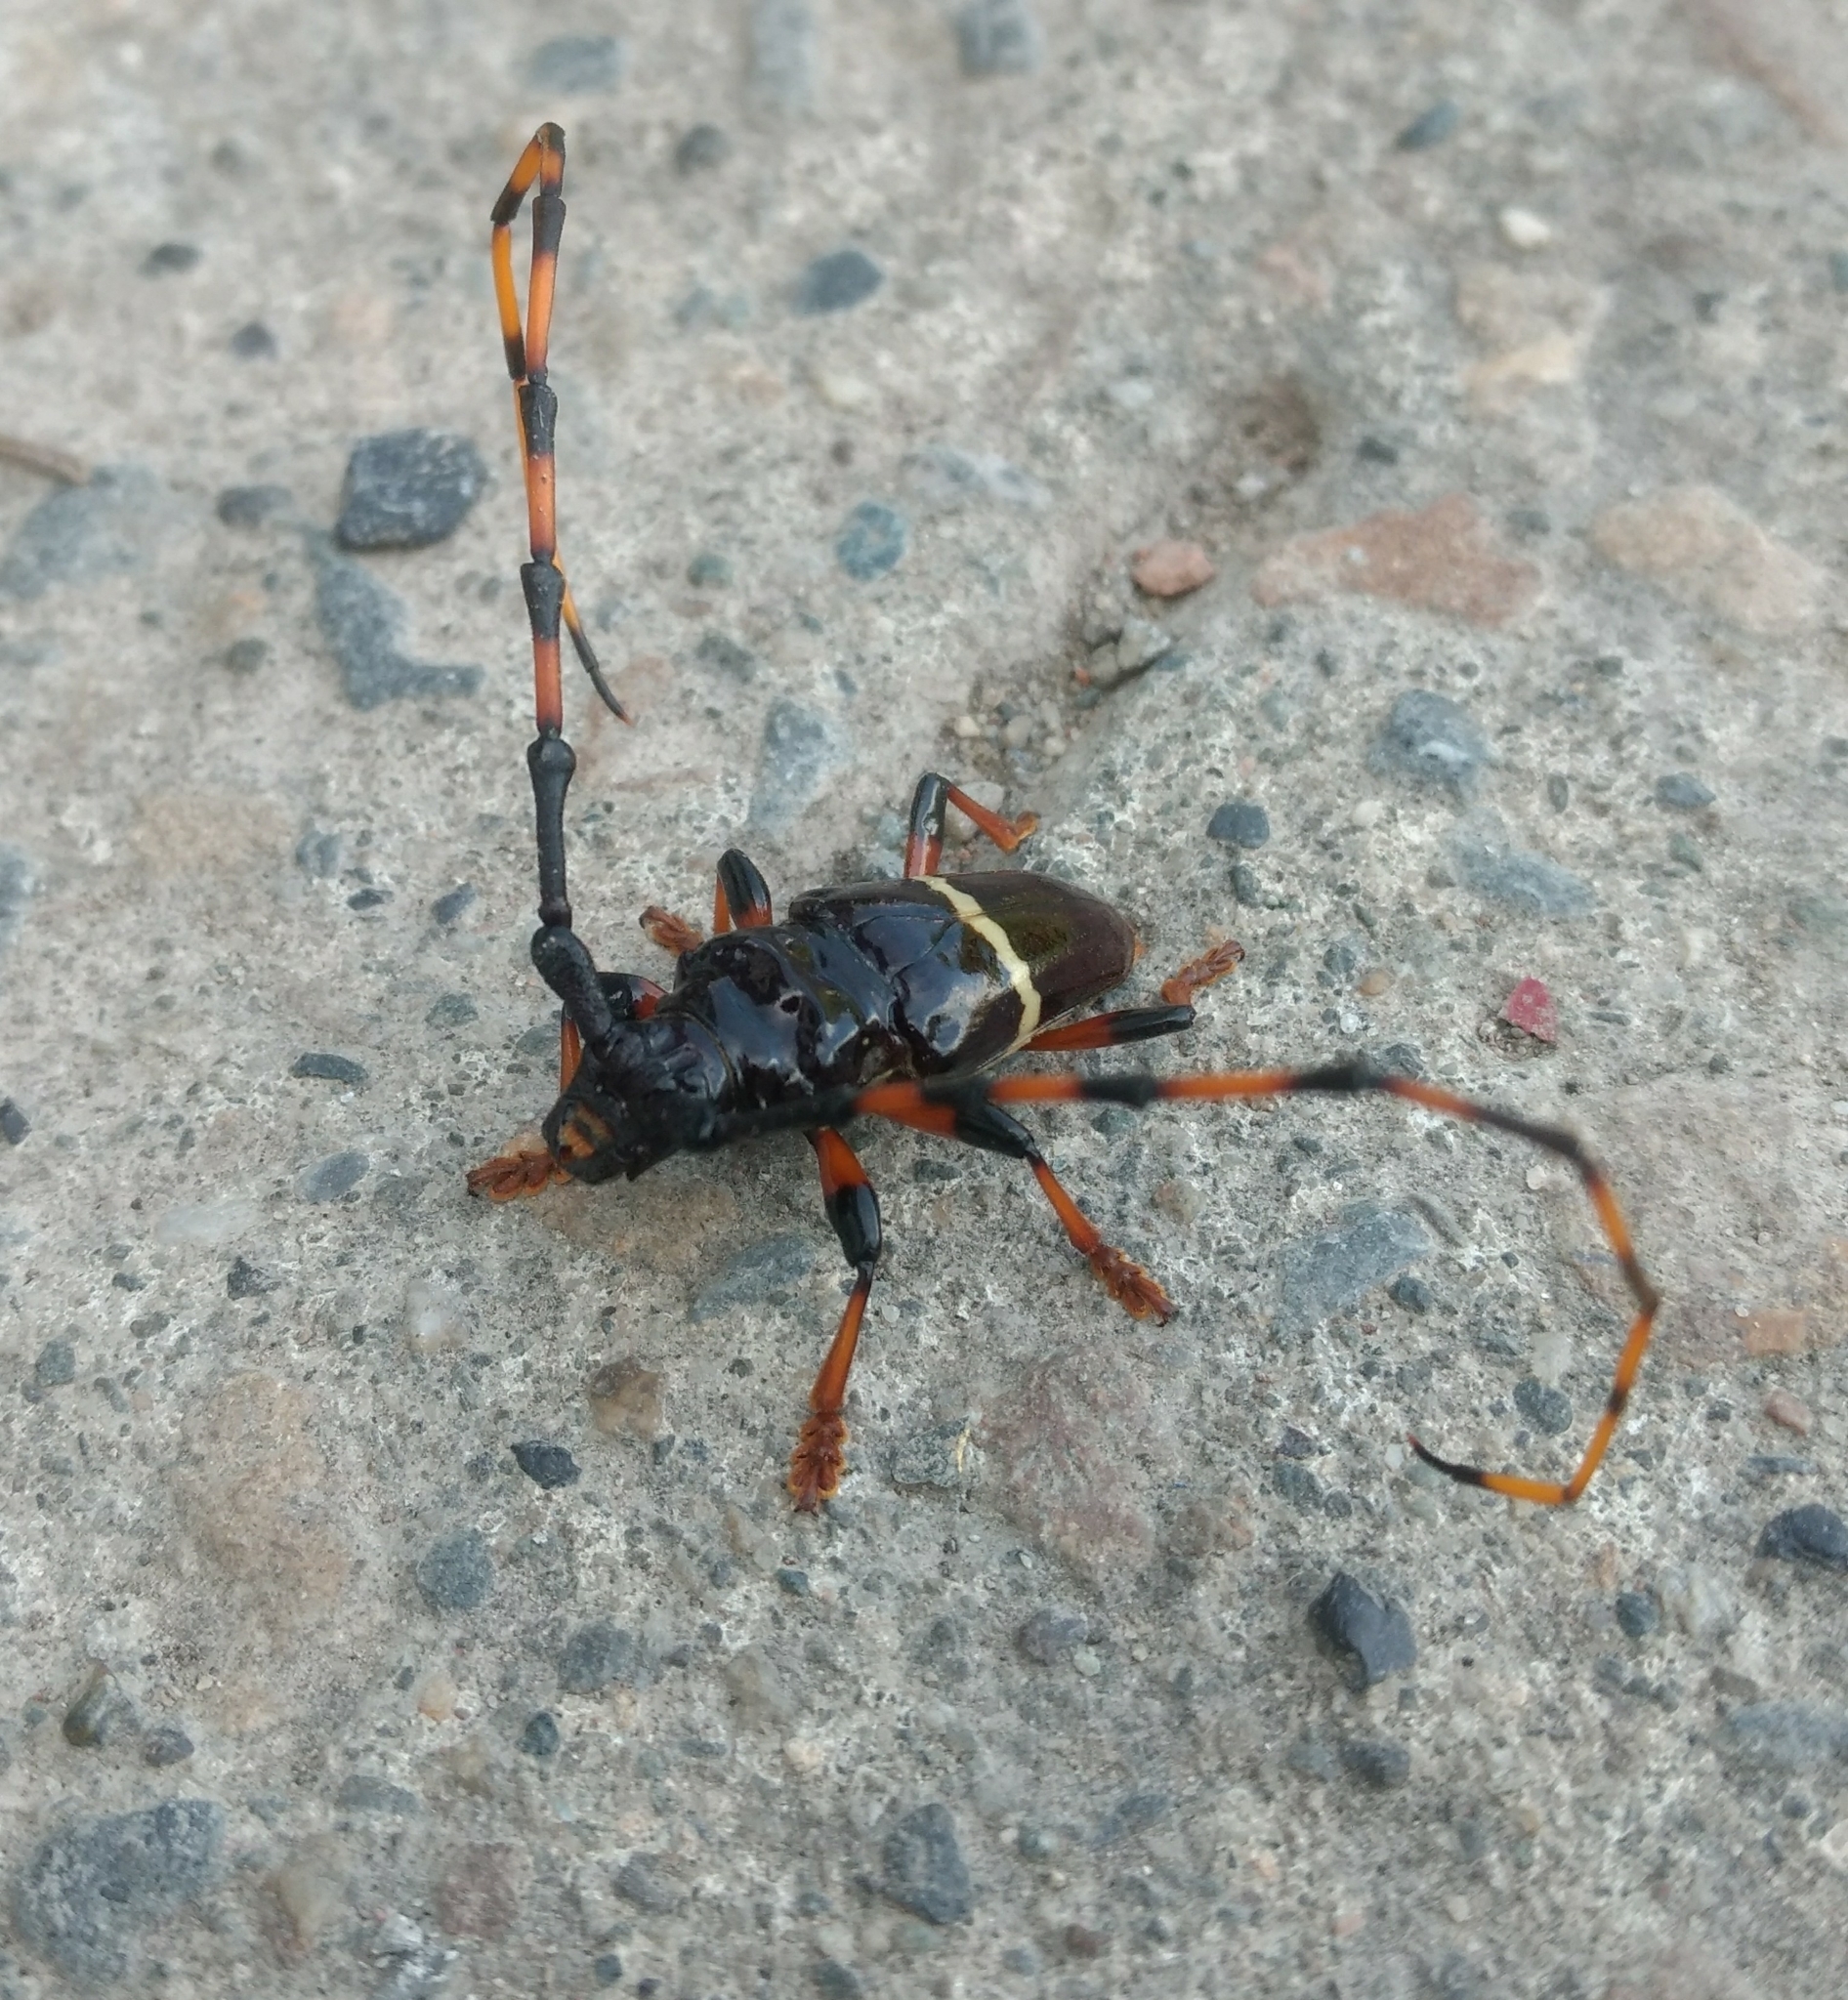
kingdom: Animalia
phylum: Arthropoda
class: Insecta
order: Coleoptera
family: Cerambycidae
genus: Trachyderes
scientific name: Trachyderes succinctus
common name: Mango longhorn
